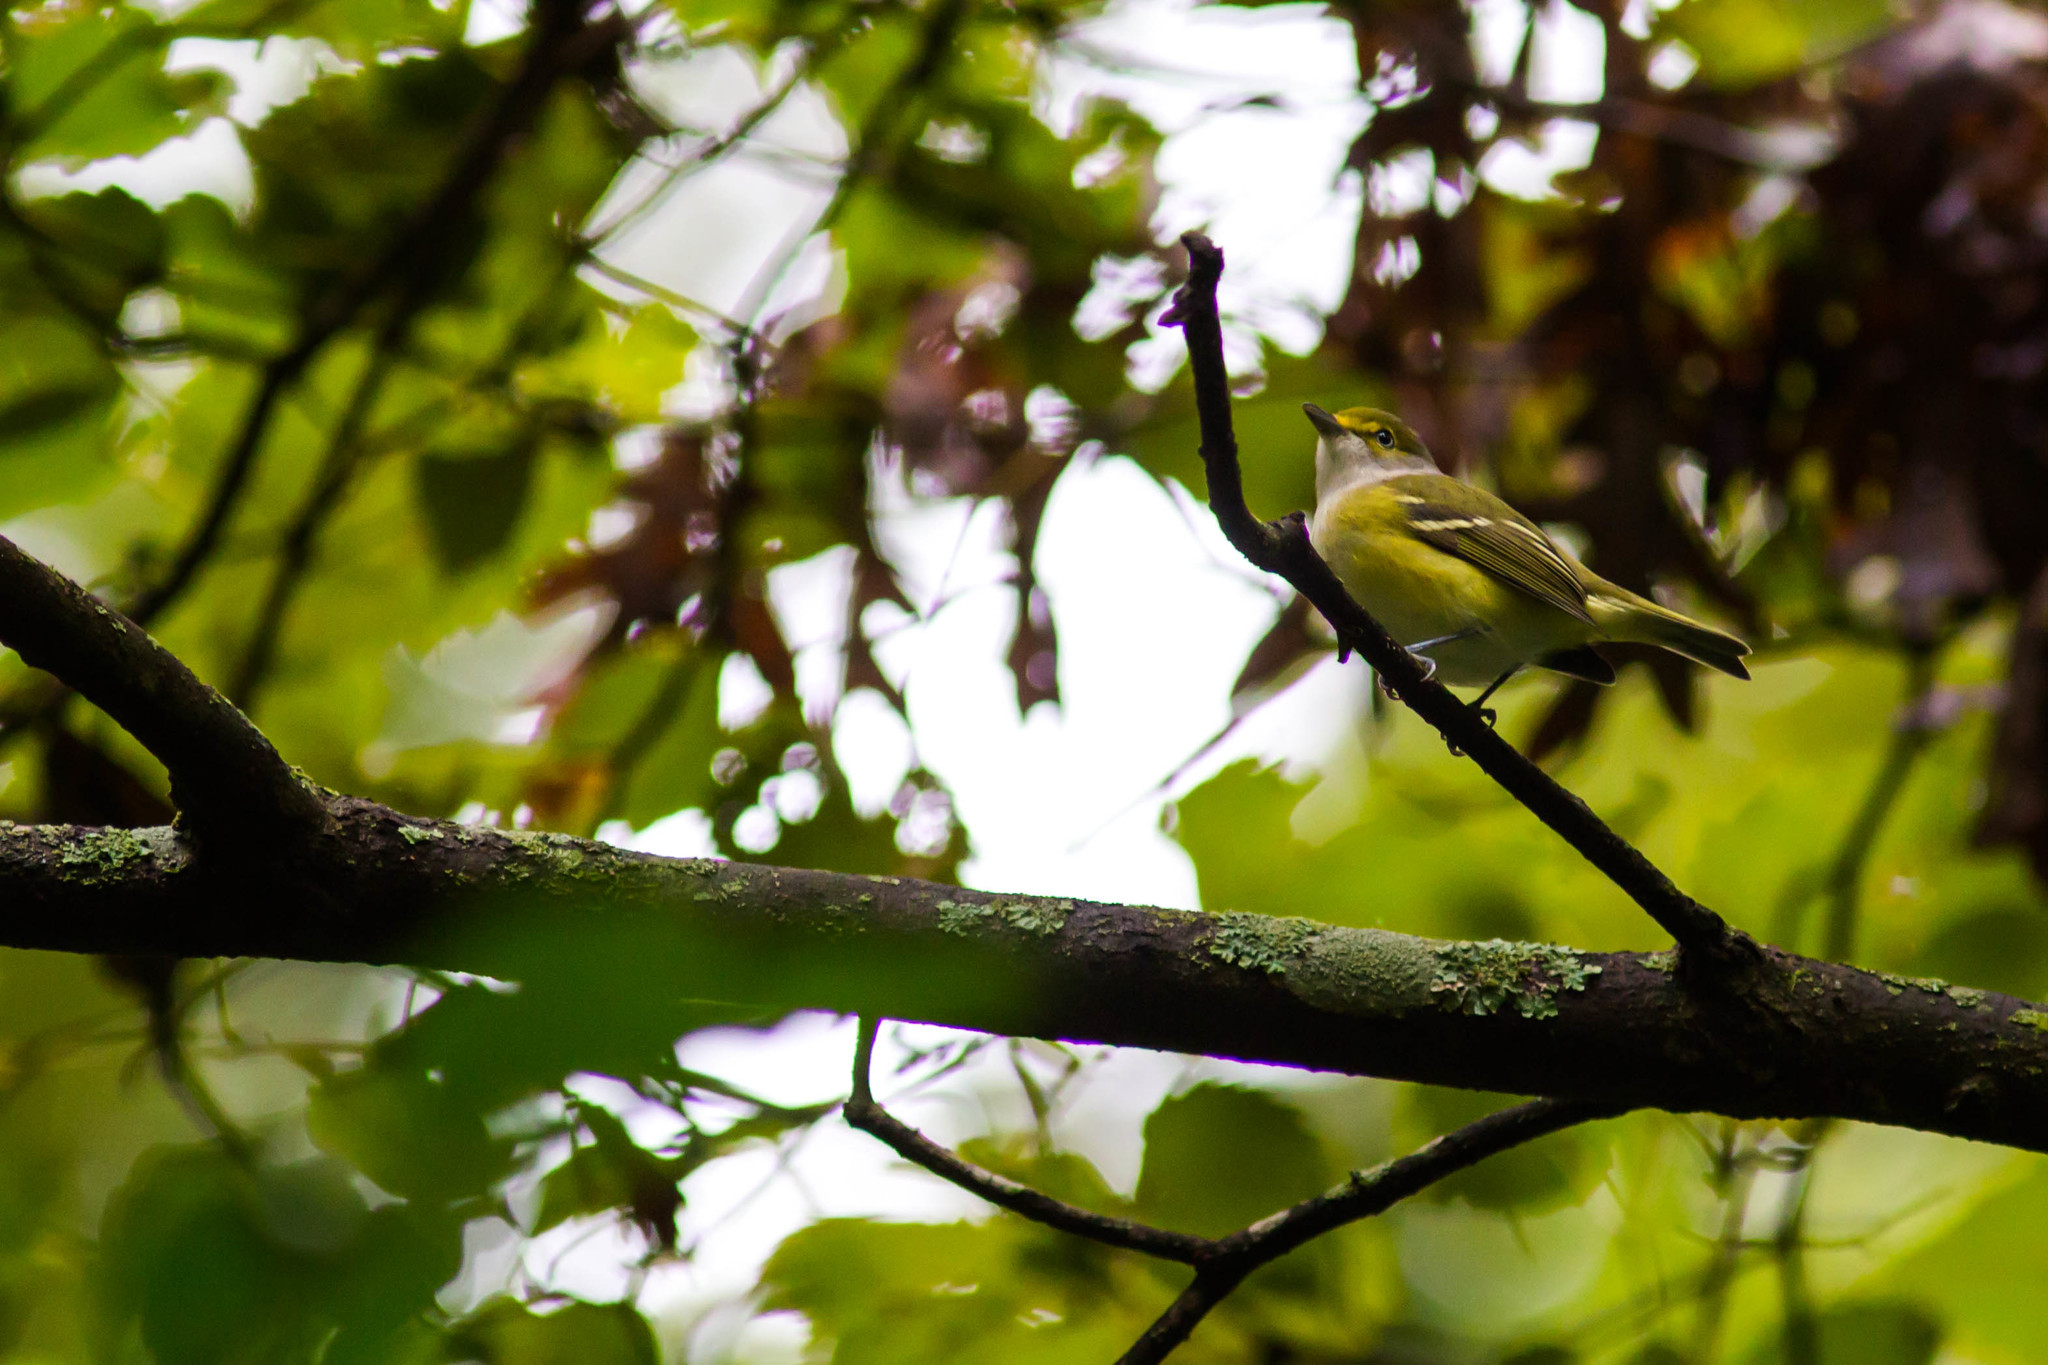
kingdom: Animalia
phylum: Chordata
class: Aves
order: Passeriformes
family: Vireonidae
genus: Vireo
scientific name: Vireo griseus
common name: White-eyed vireo
